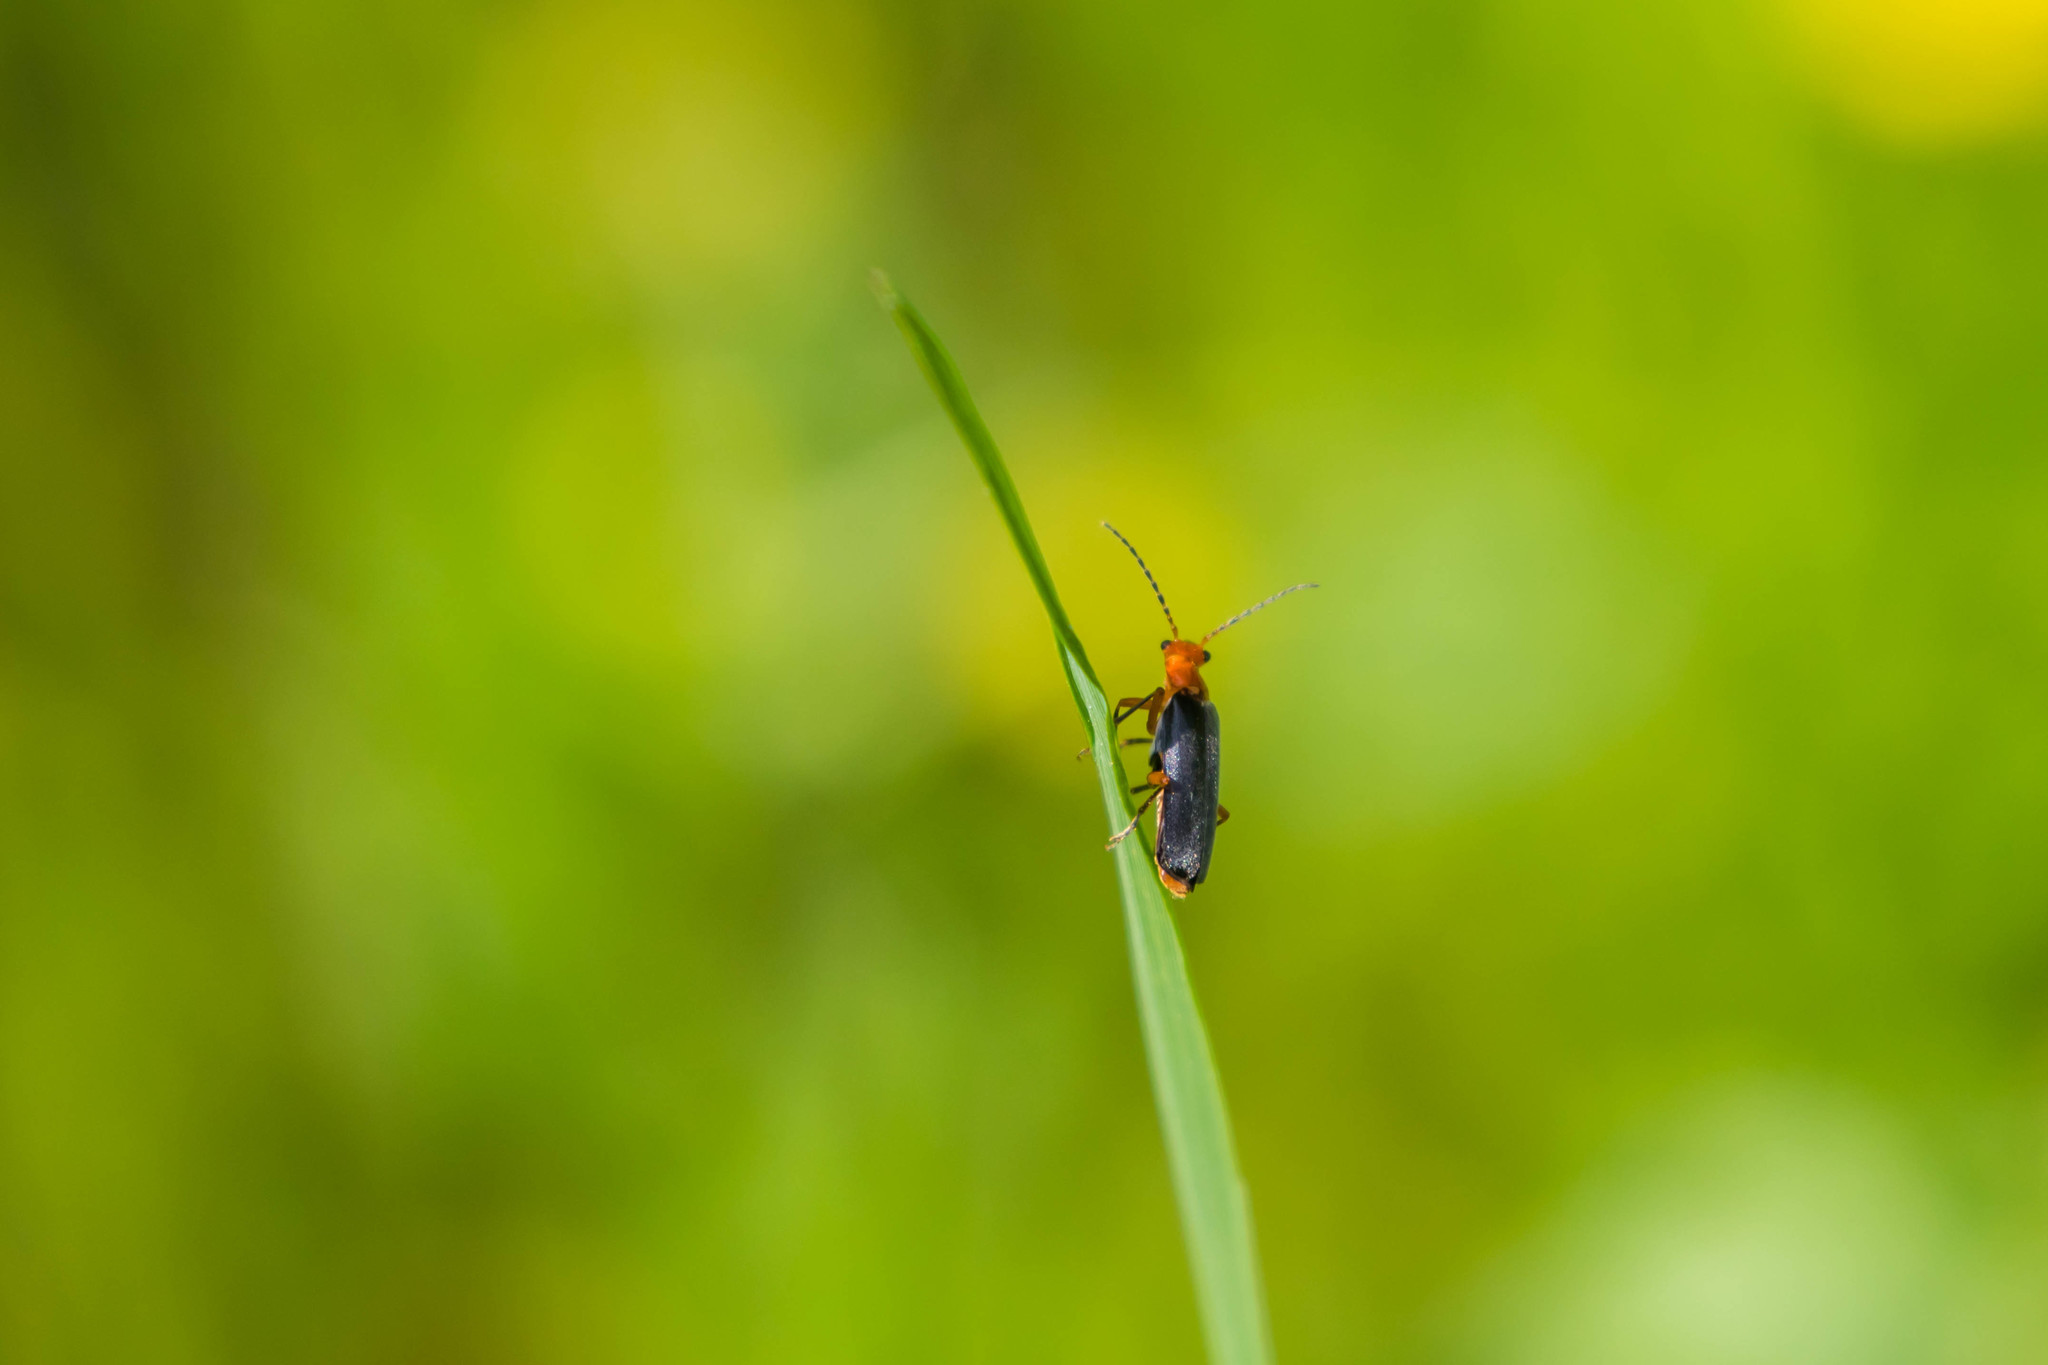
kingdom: Animalia
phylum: Arthropoda
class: Insecta
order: Coleoptera
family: Cantharidae
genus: Podabrus
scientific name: Podabrus tomentosus
